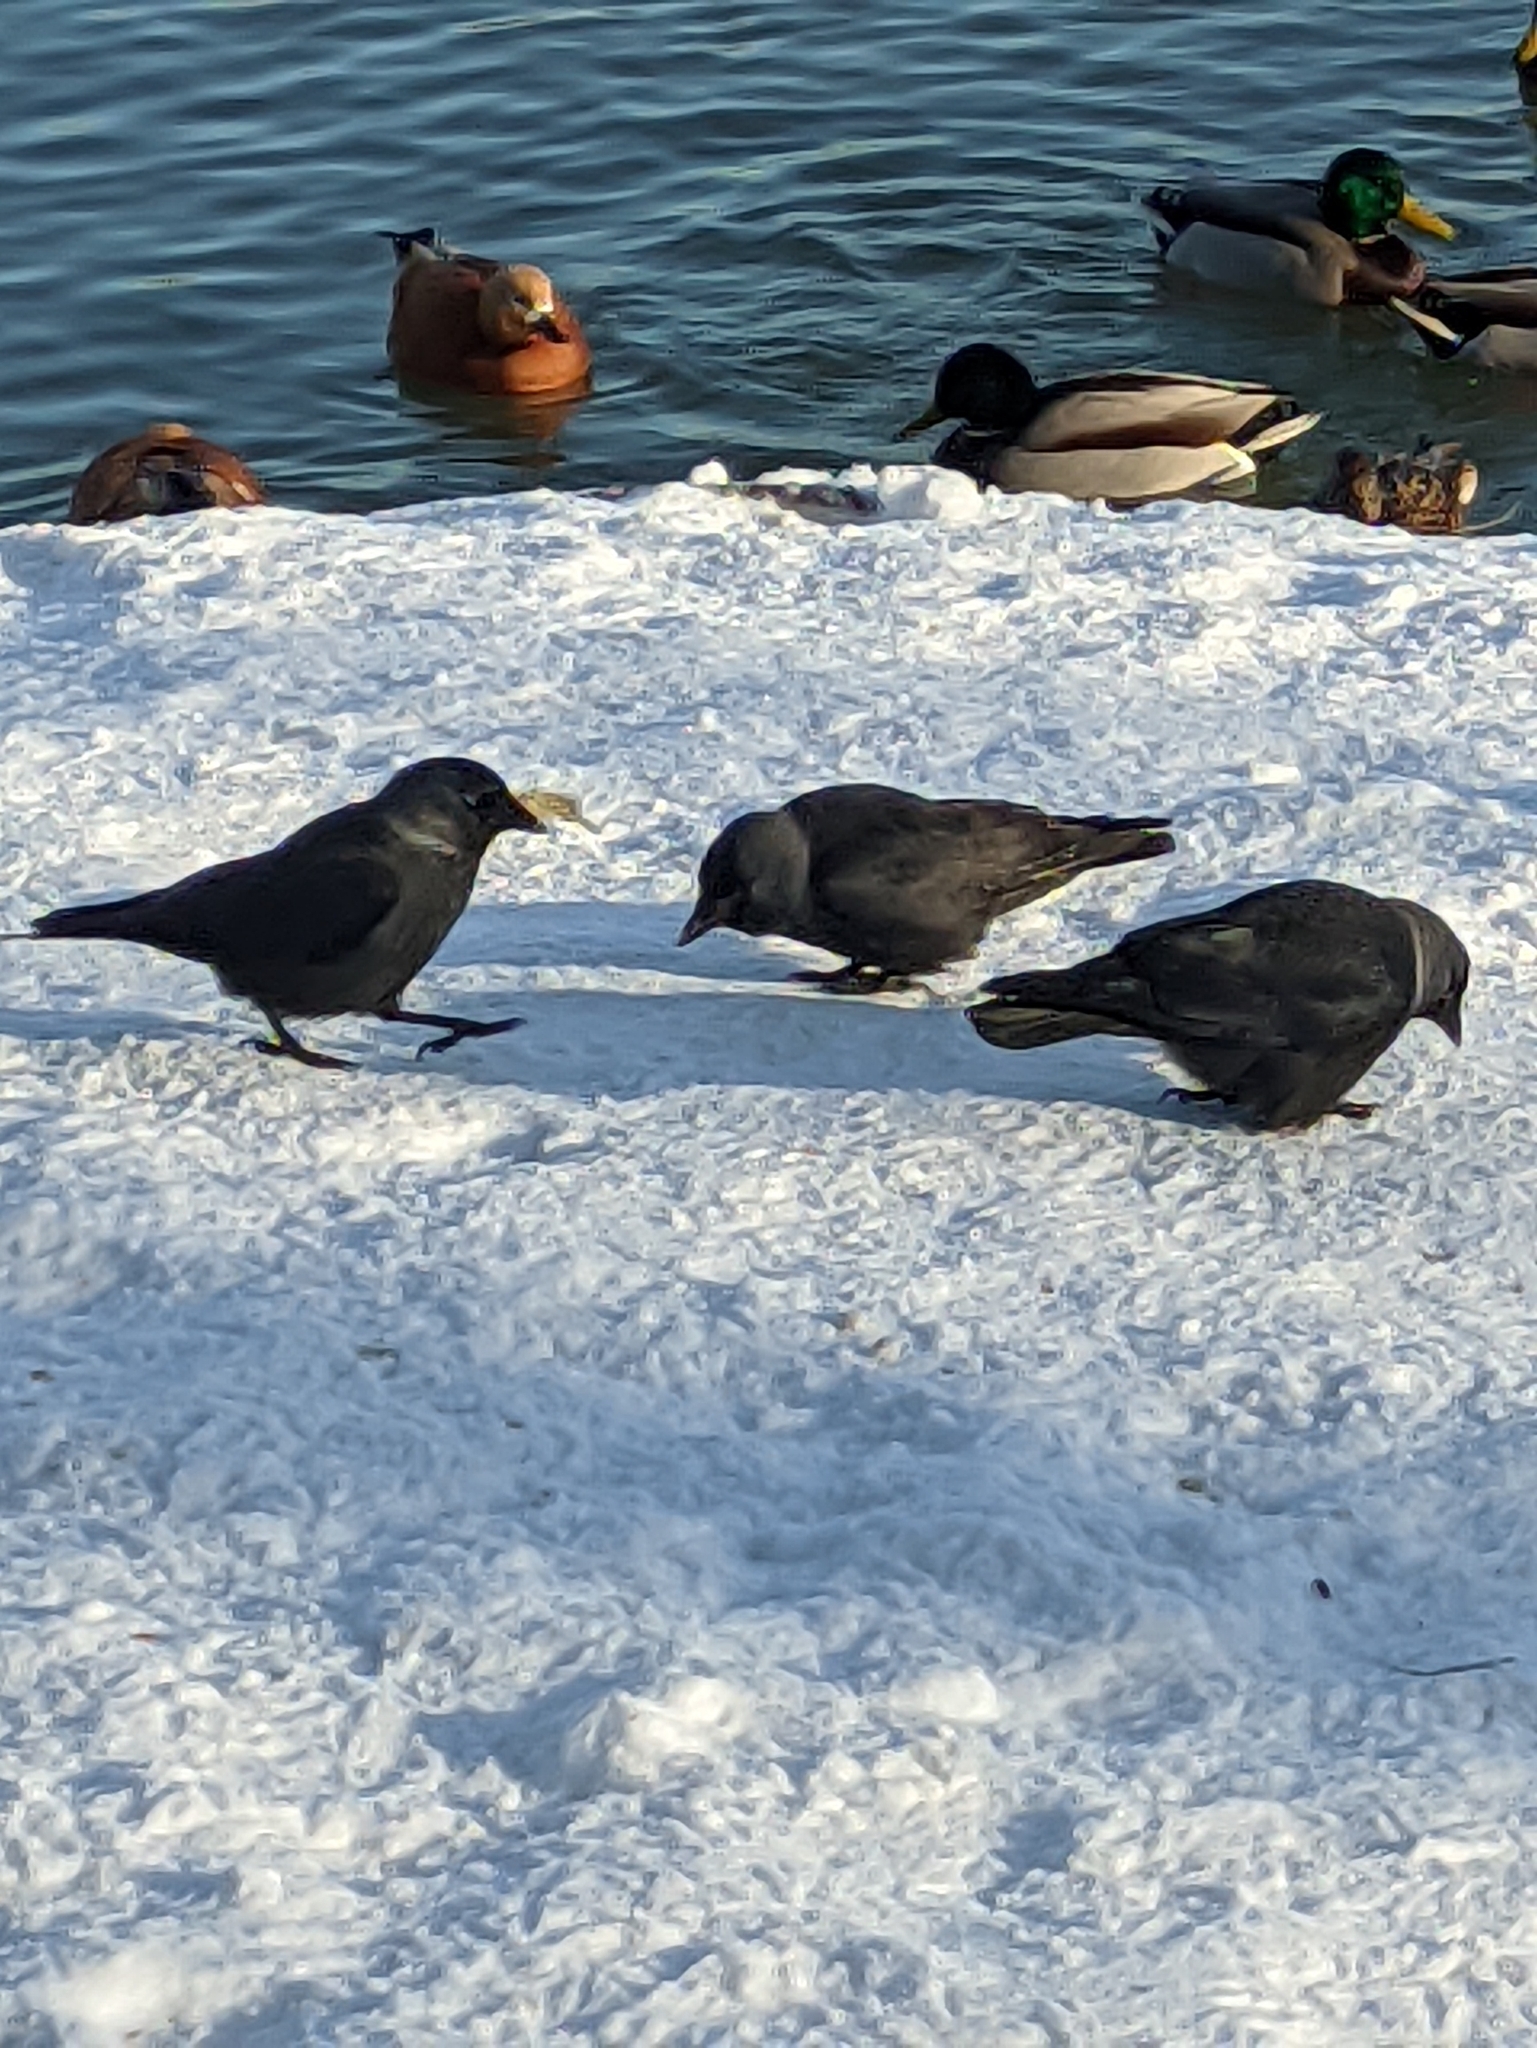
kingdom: Animalia
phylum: Chordata
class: Aves
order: Passeriformes
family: Corvidae
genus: Coloeus
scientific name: Coloeus monedula
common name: Western jackdaw
